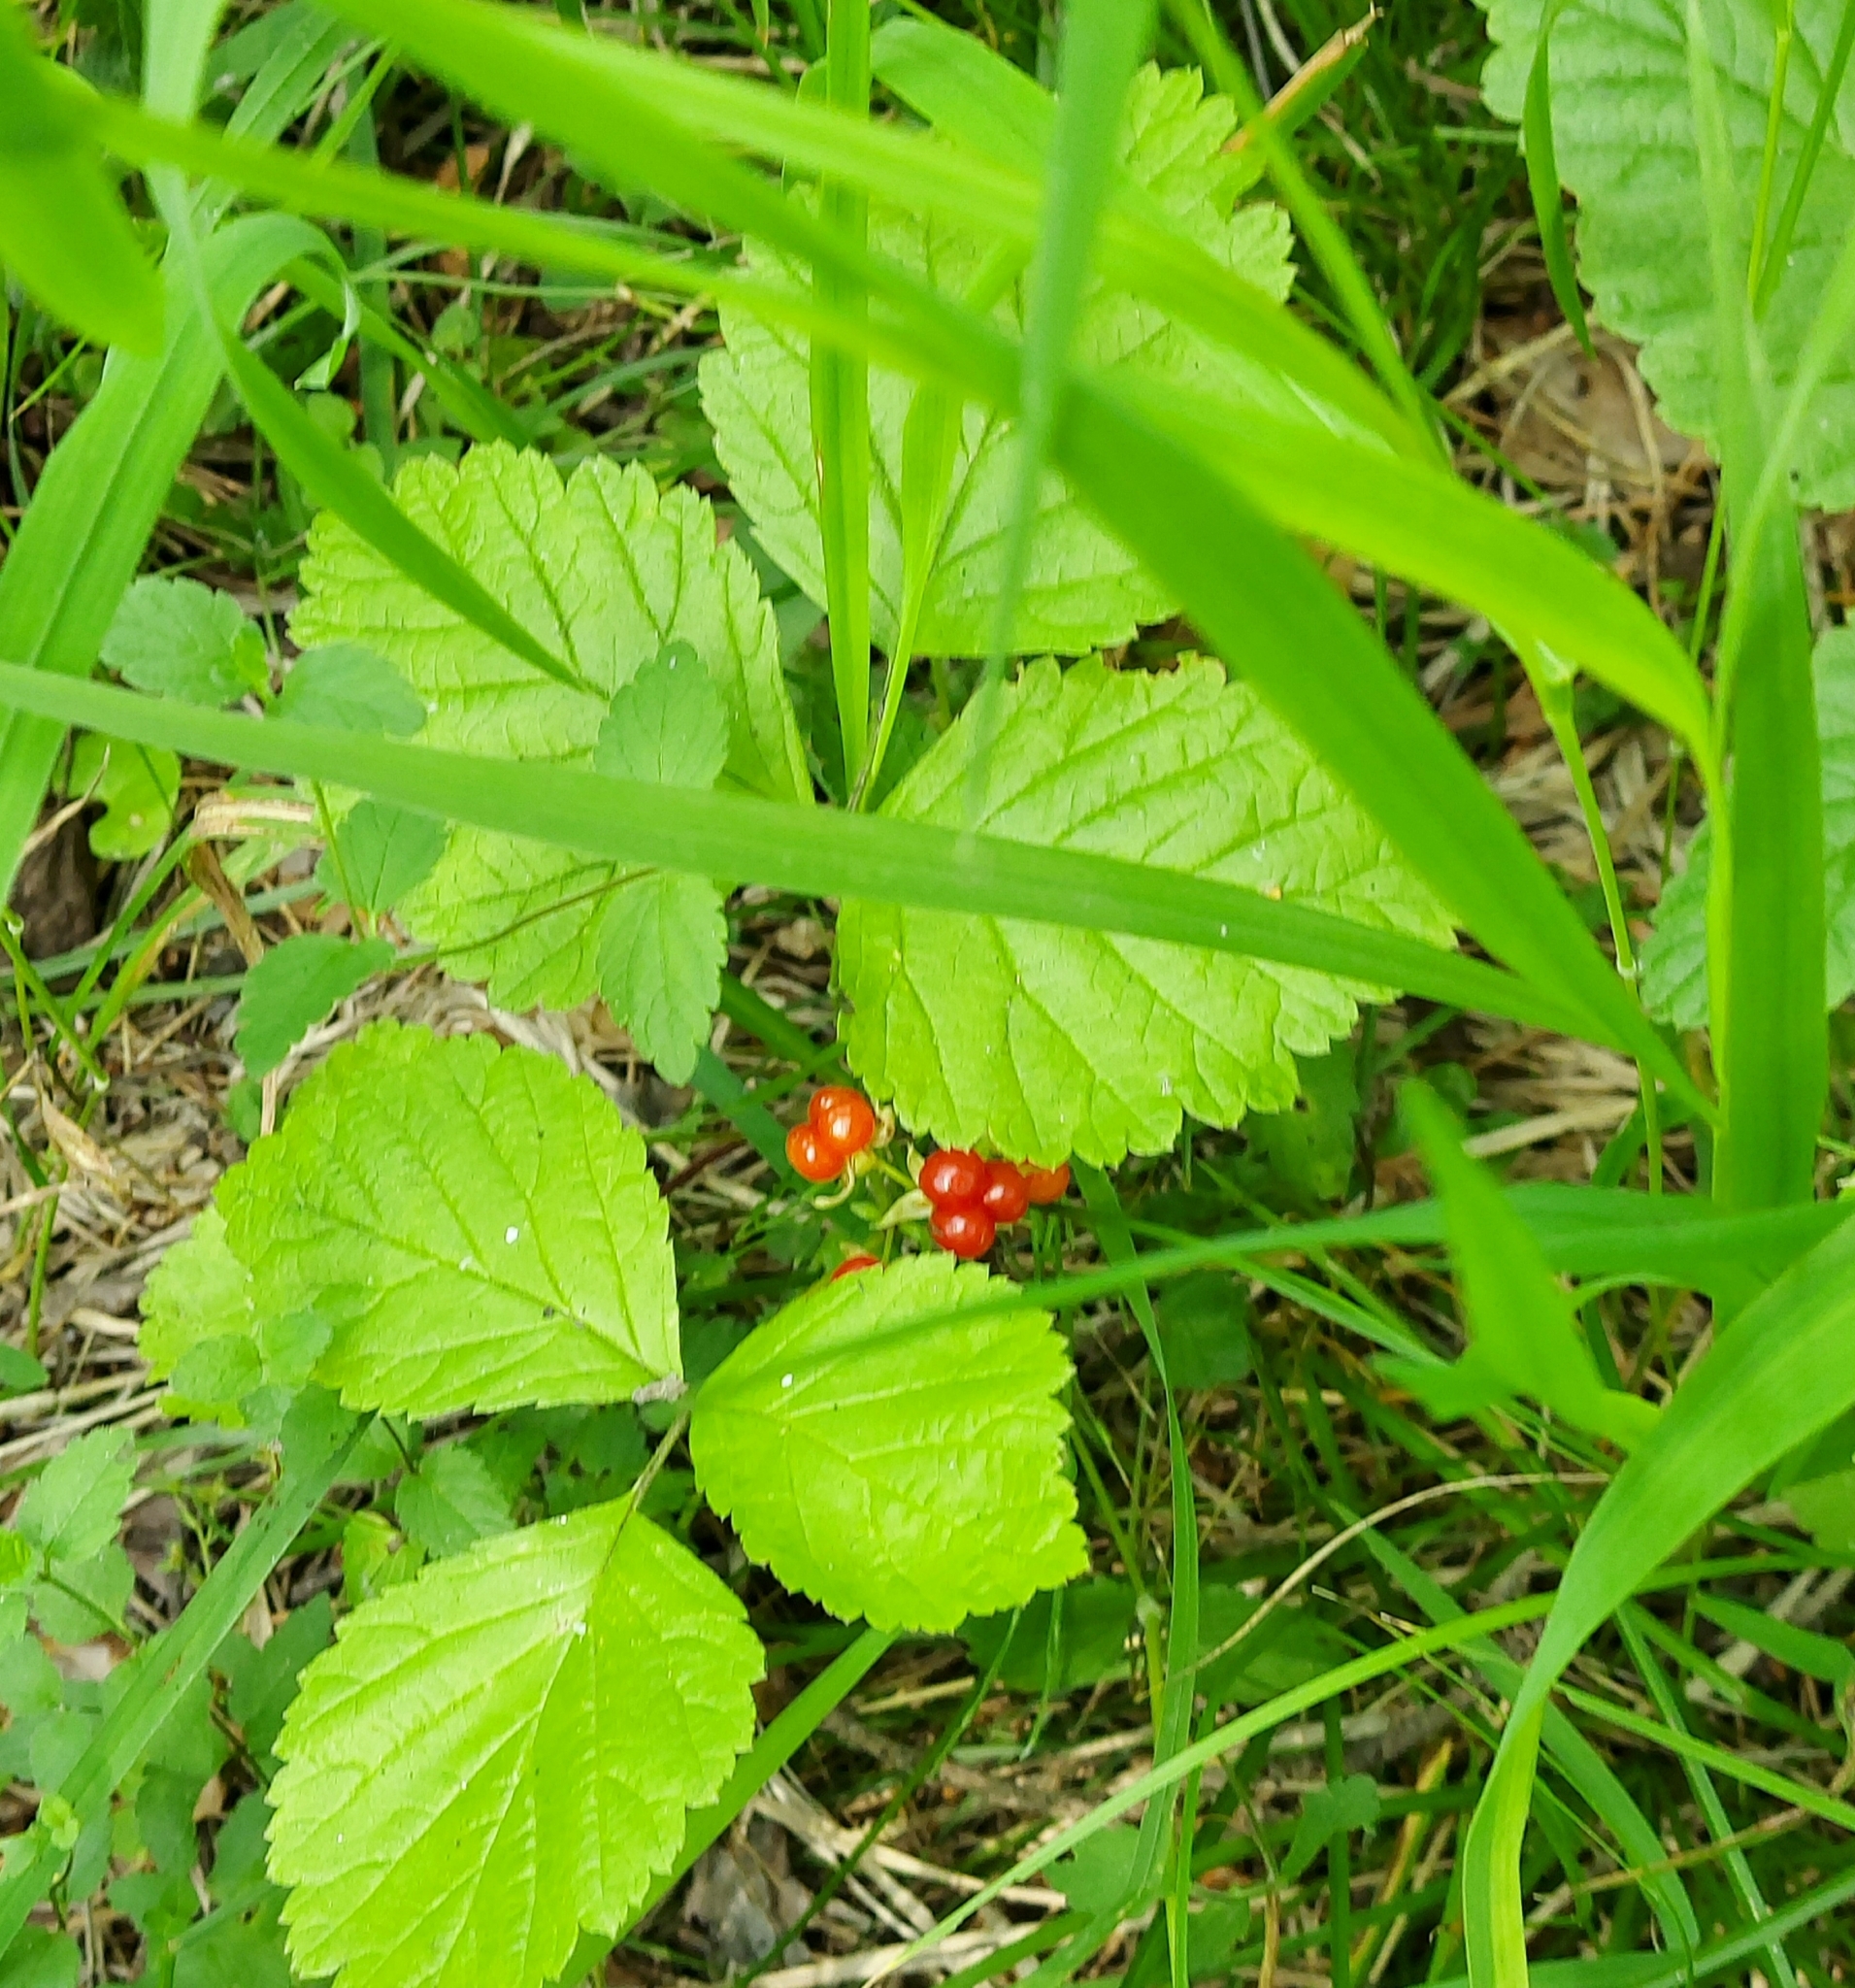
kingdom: Plantae
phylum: Tracheophyta
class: Magnoliopsida
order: Rosales
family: Rosaceae
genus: Rubus
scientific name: Rubus saxatilis
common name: Stone bramble
